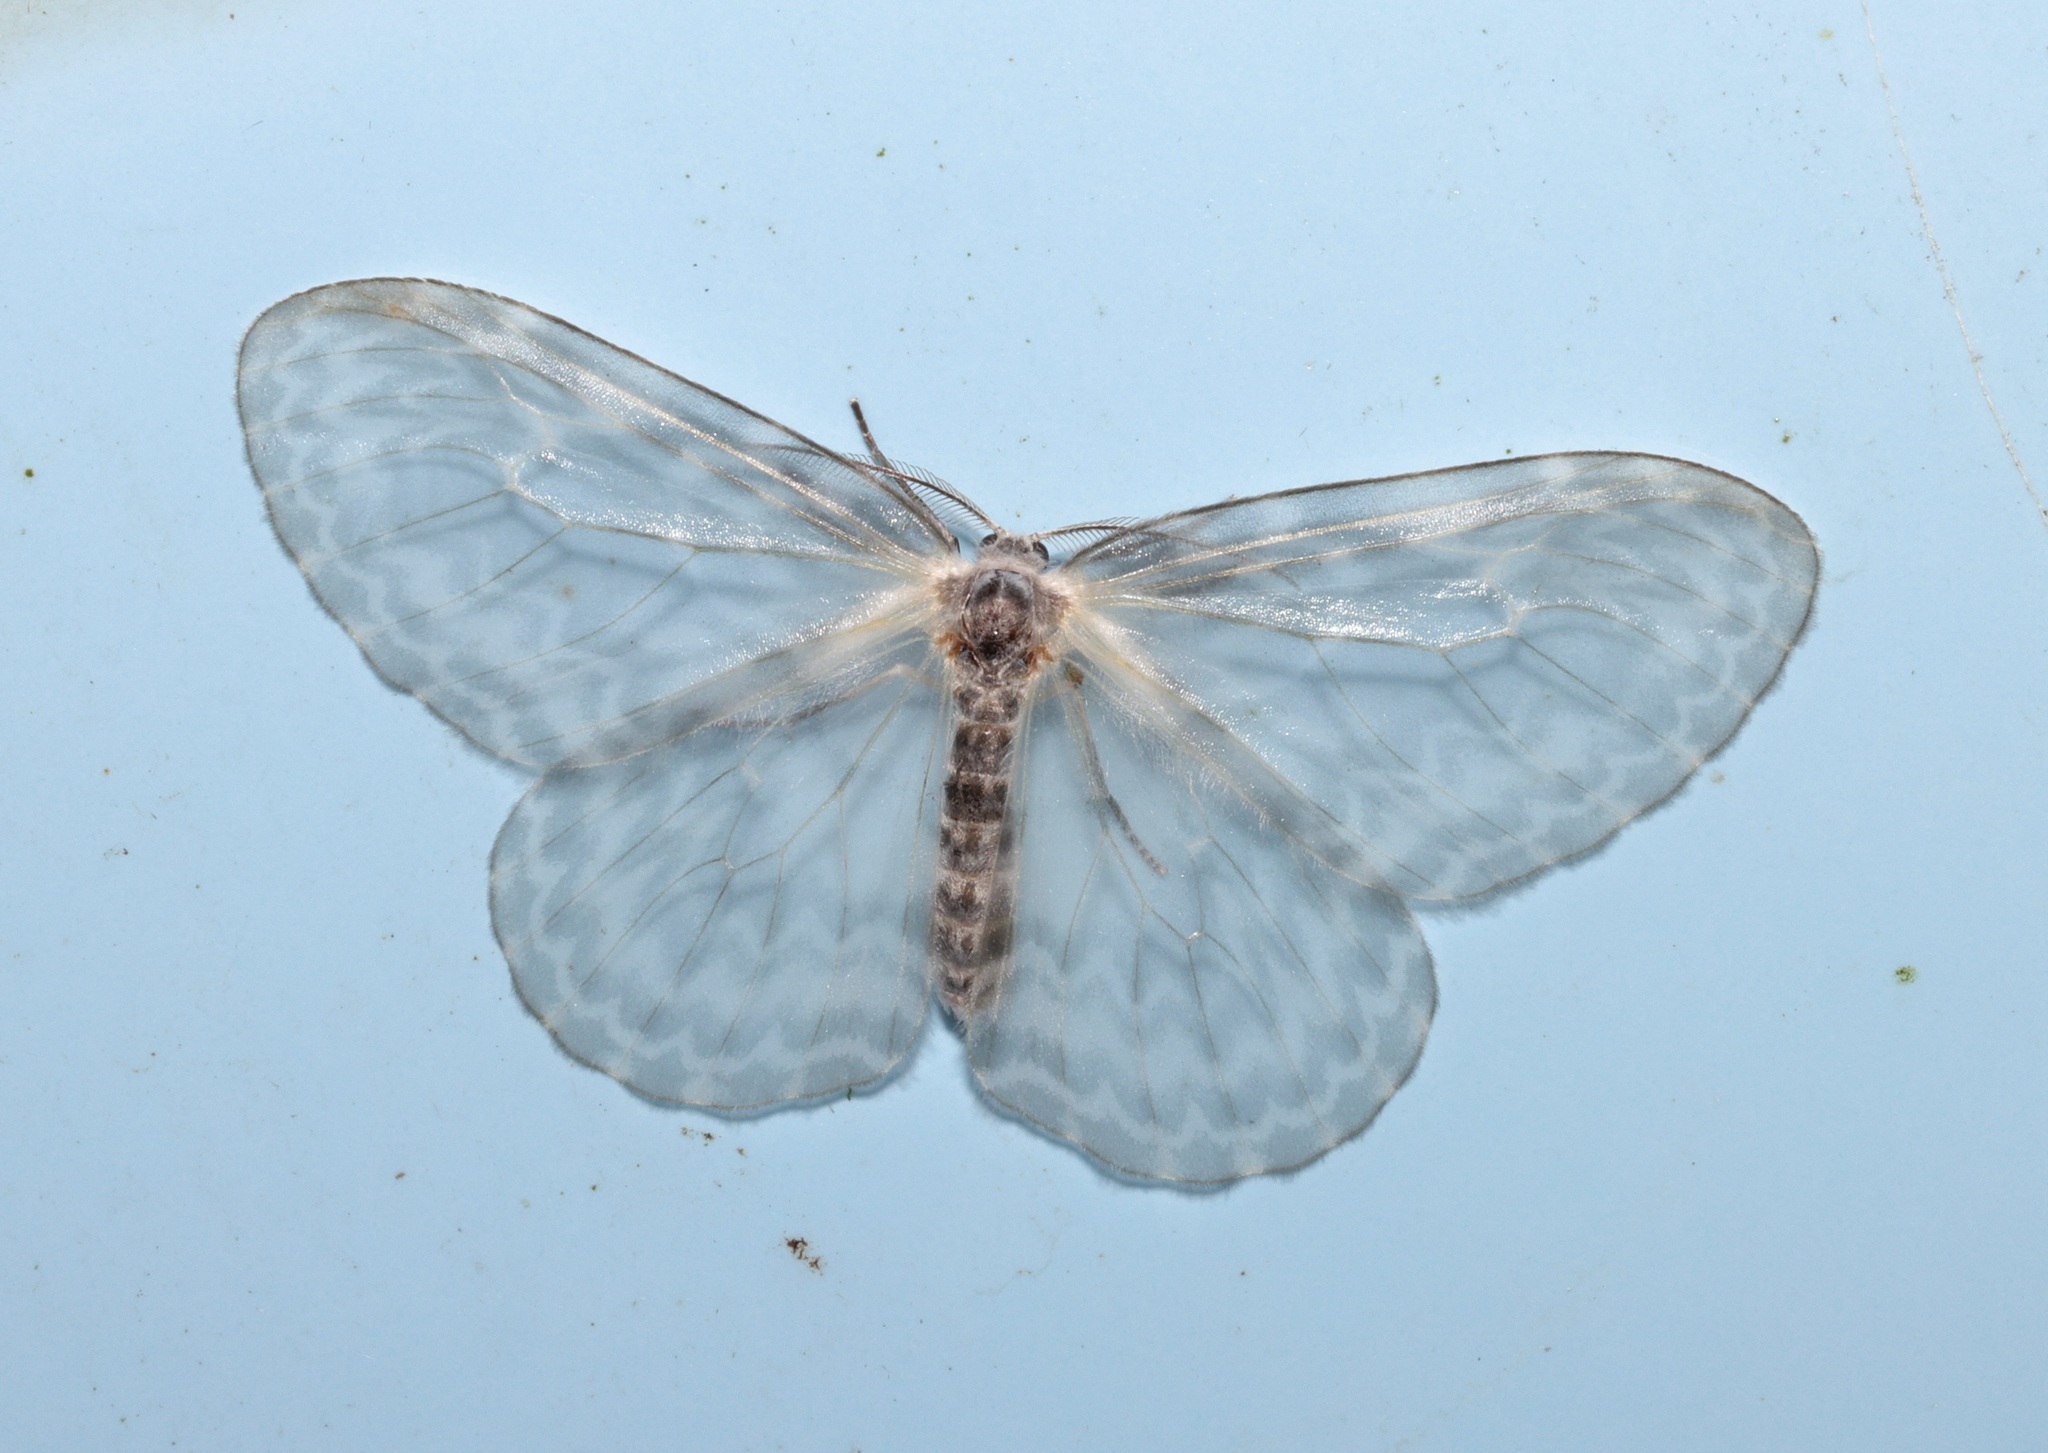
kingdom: Animalia
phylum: Arthropoda
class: Insecta
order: Lepidoptera
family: Drepanidae
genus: Deroca
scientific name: Deroca hyalina
